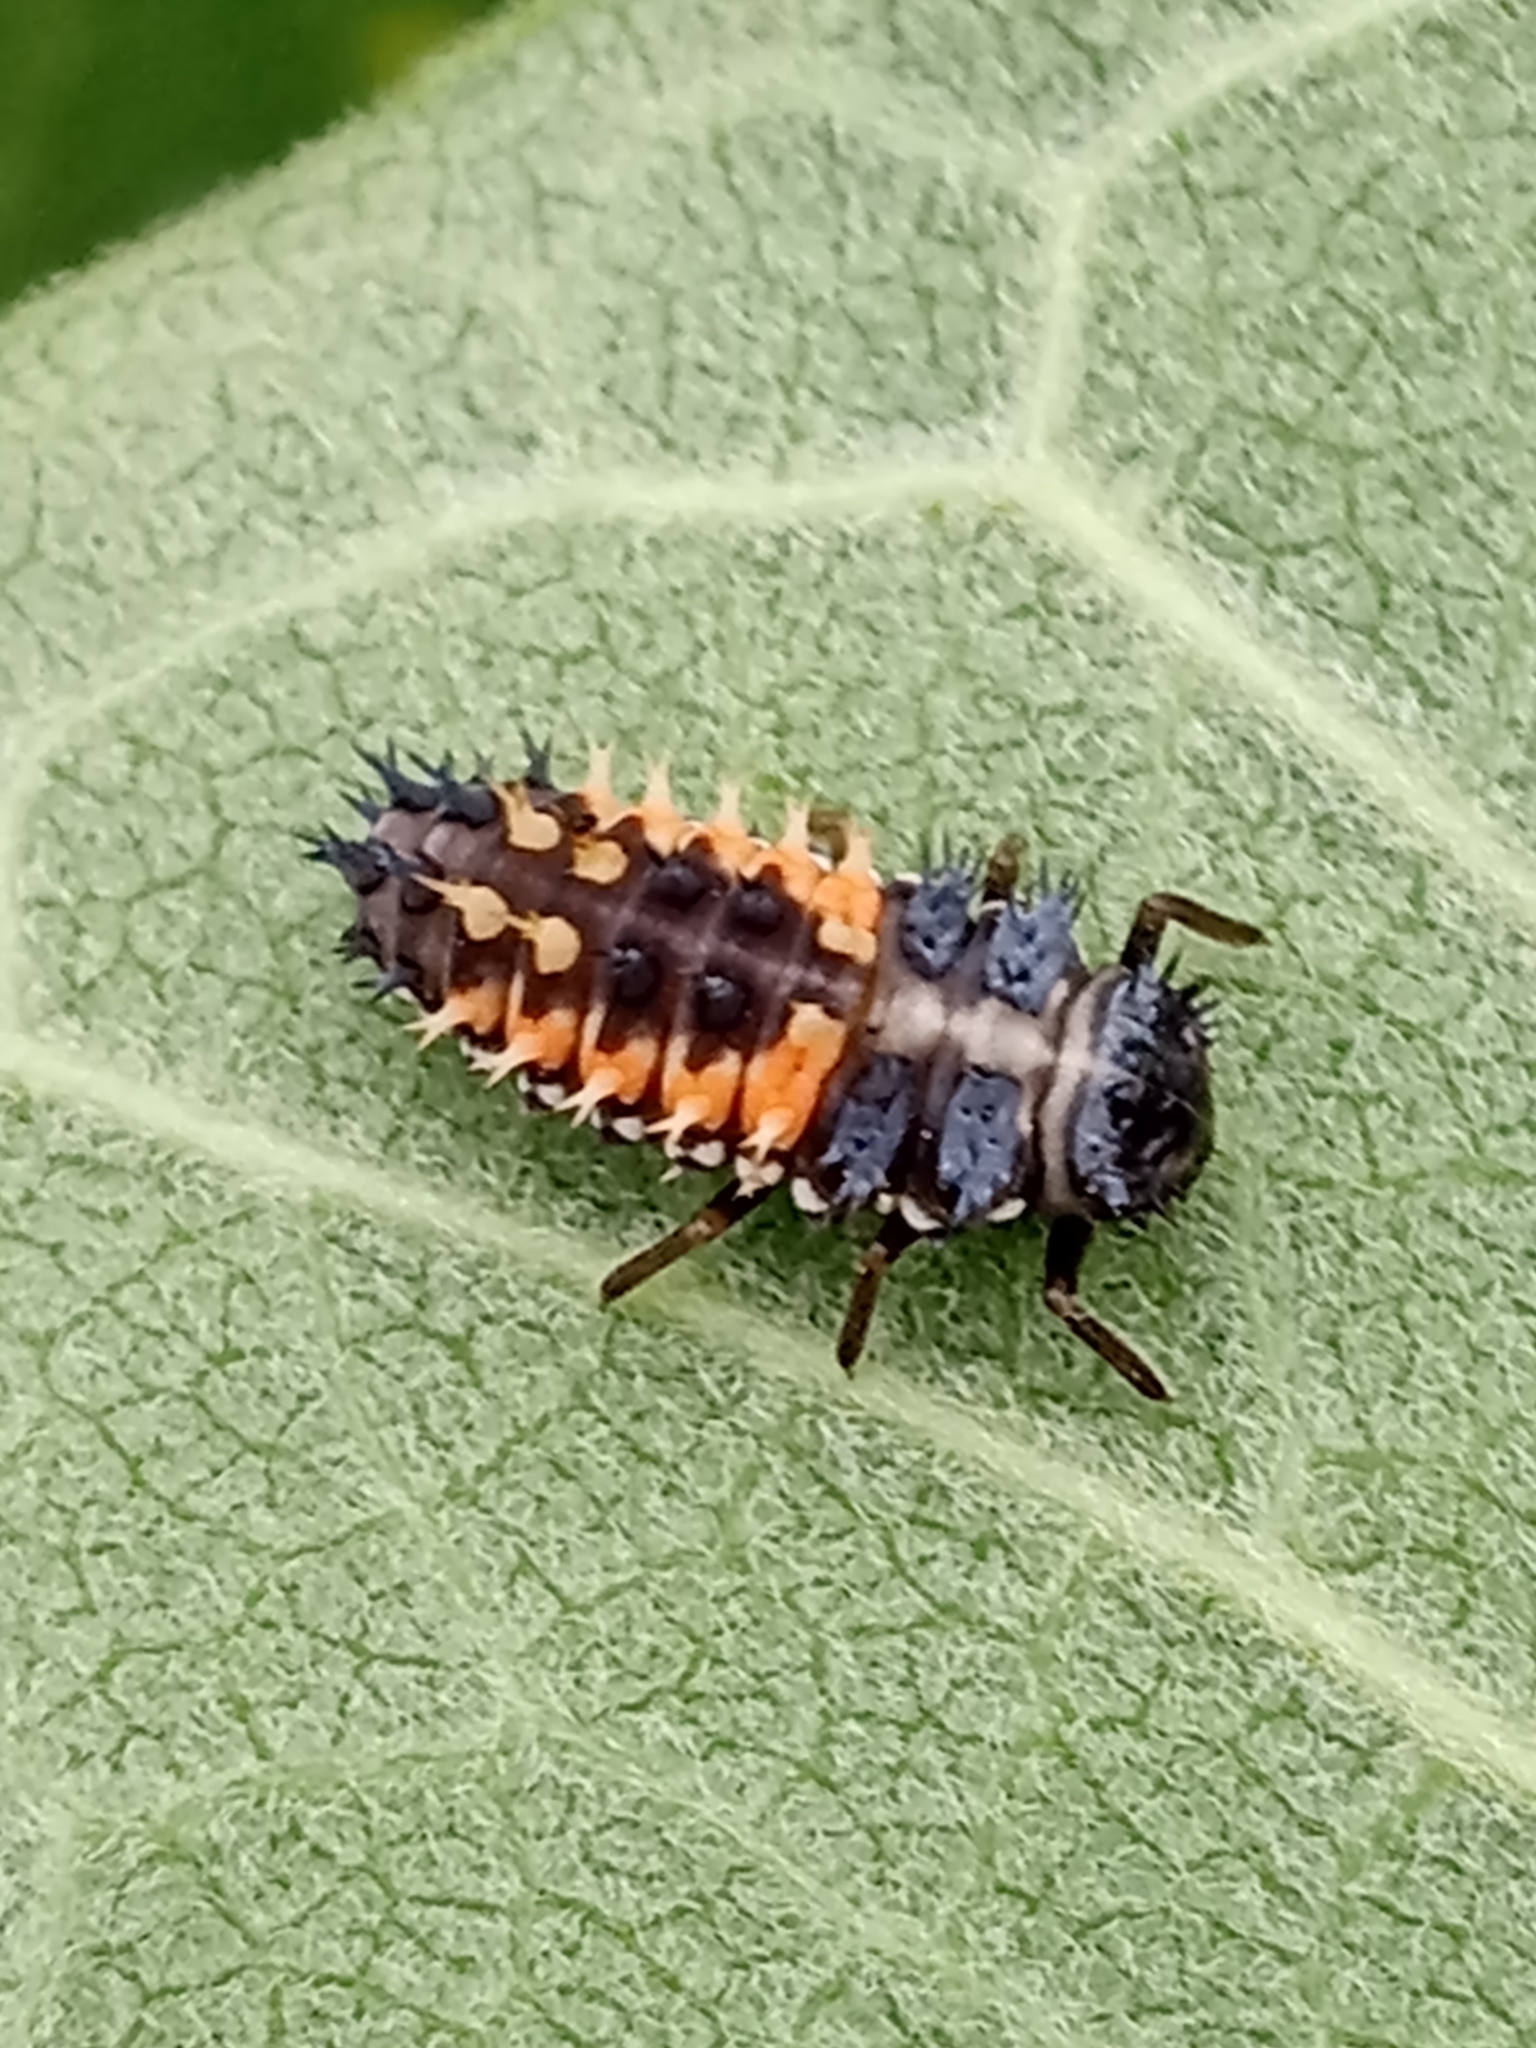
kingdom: Animalia
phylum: Arthropoda
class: Insecta
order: Coleoptera
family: Coccinellidae
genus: Harmonia
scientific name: Harmonia axyridis
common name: Harlequin ladybird
